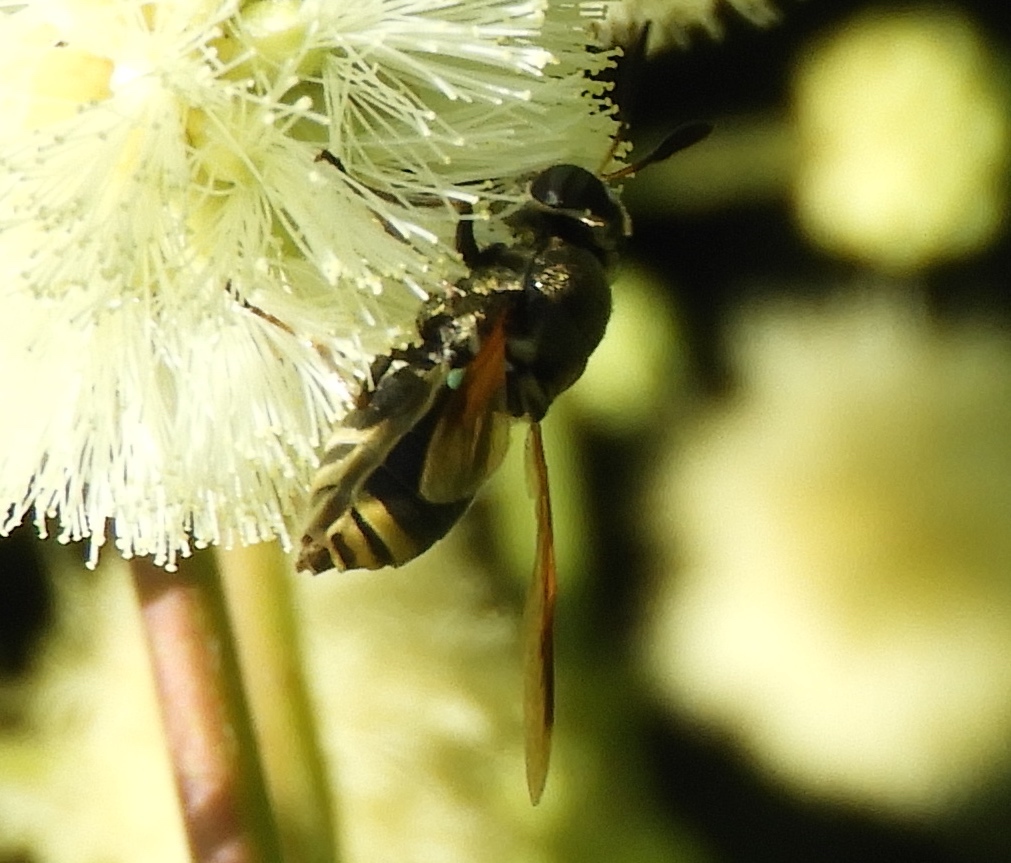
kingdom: Animalia
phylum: Arthropoda
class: Insecta
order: Diptera
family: Stratiomyidae
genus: Hoplitimyia
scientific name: Hoplitimyia mutabilis
